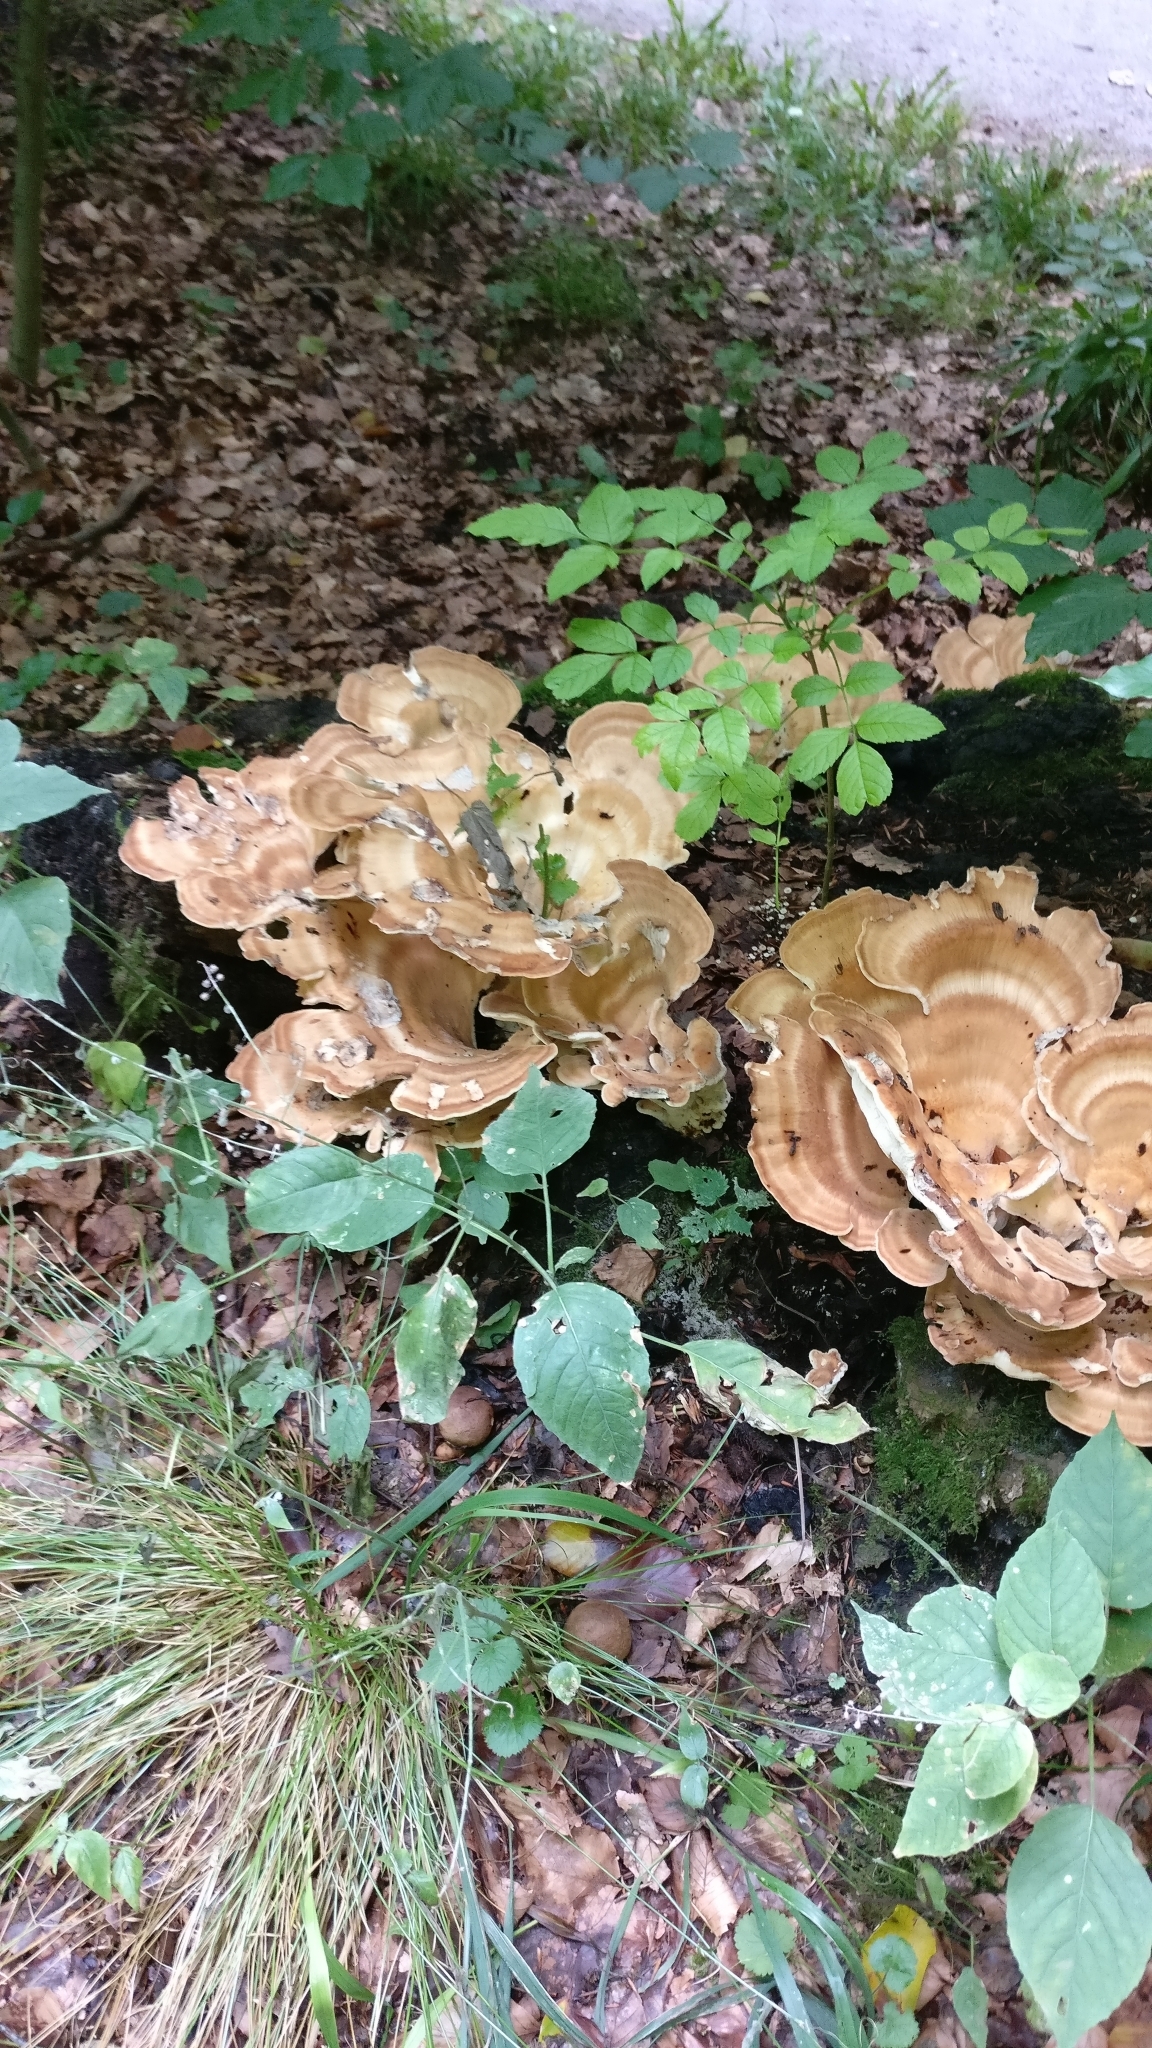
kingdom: Fungi
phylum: Basidiomycota
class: Agaricomycetes
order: Polyporales
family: Meripilaceae
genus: Meripilus
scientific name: Meripilus giganteus
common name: Giant polypore
